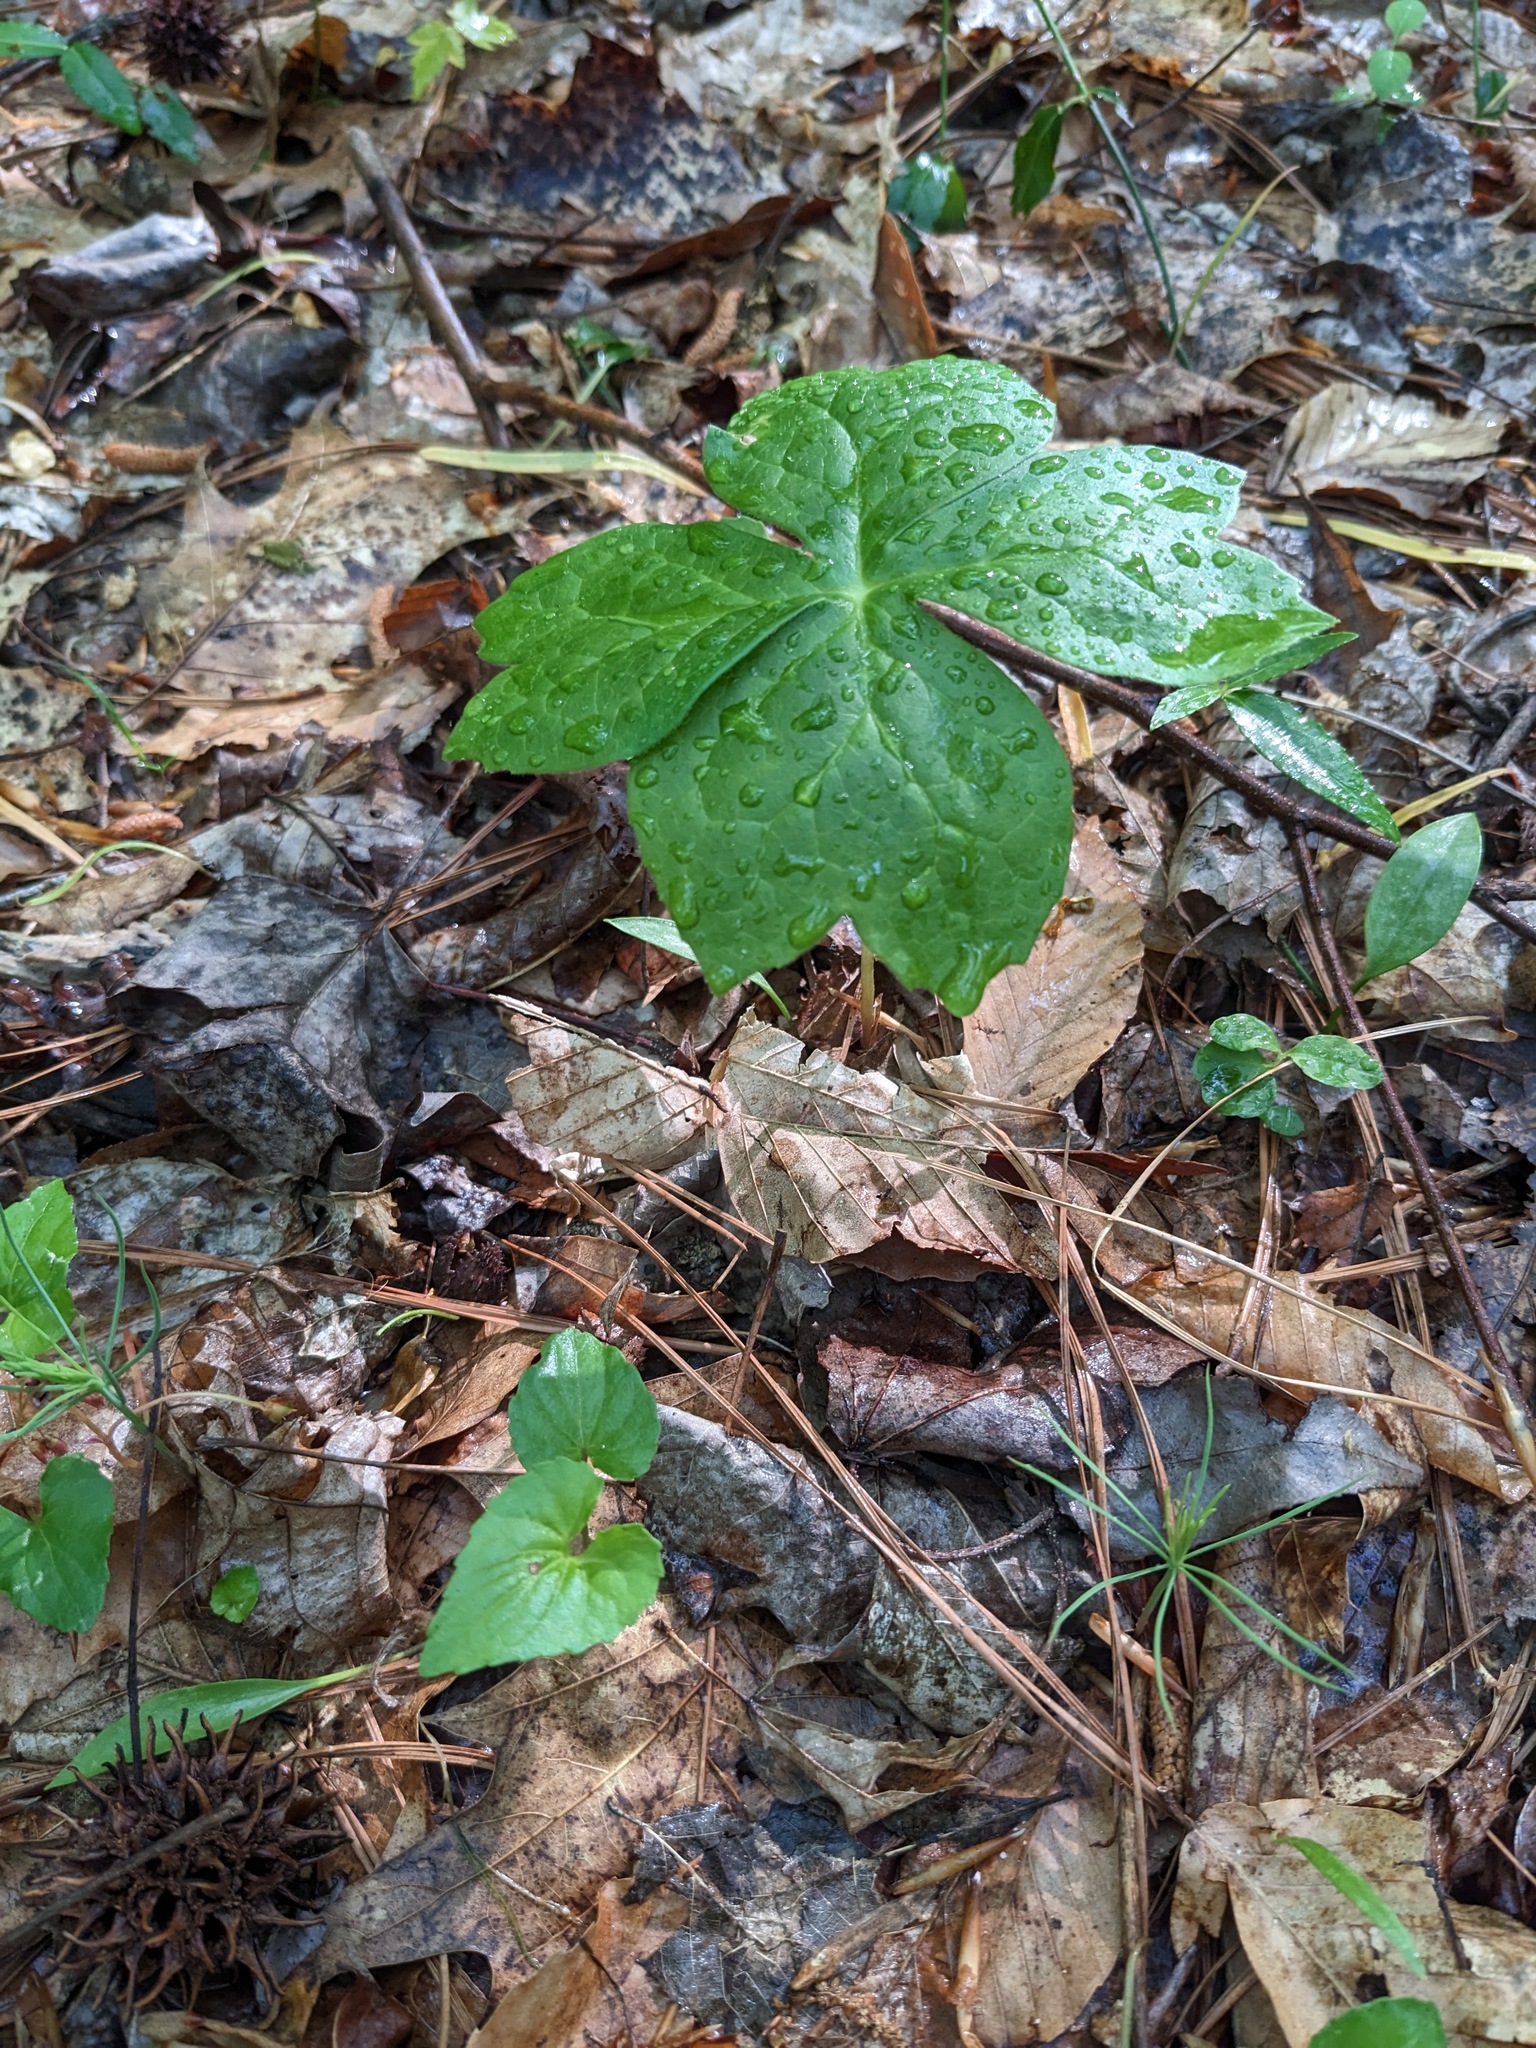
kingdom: Plantae
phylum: Tracheophyta
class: Magnoliopsida
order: Ranunculales
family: Berberidaceae
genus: Podophyllum
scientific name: Podophyllum peltatum
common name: Wild mandrake
